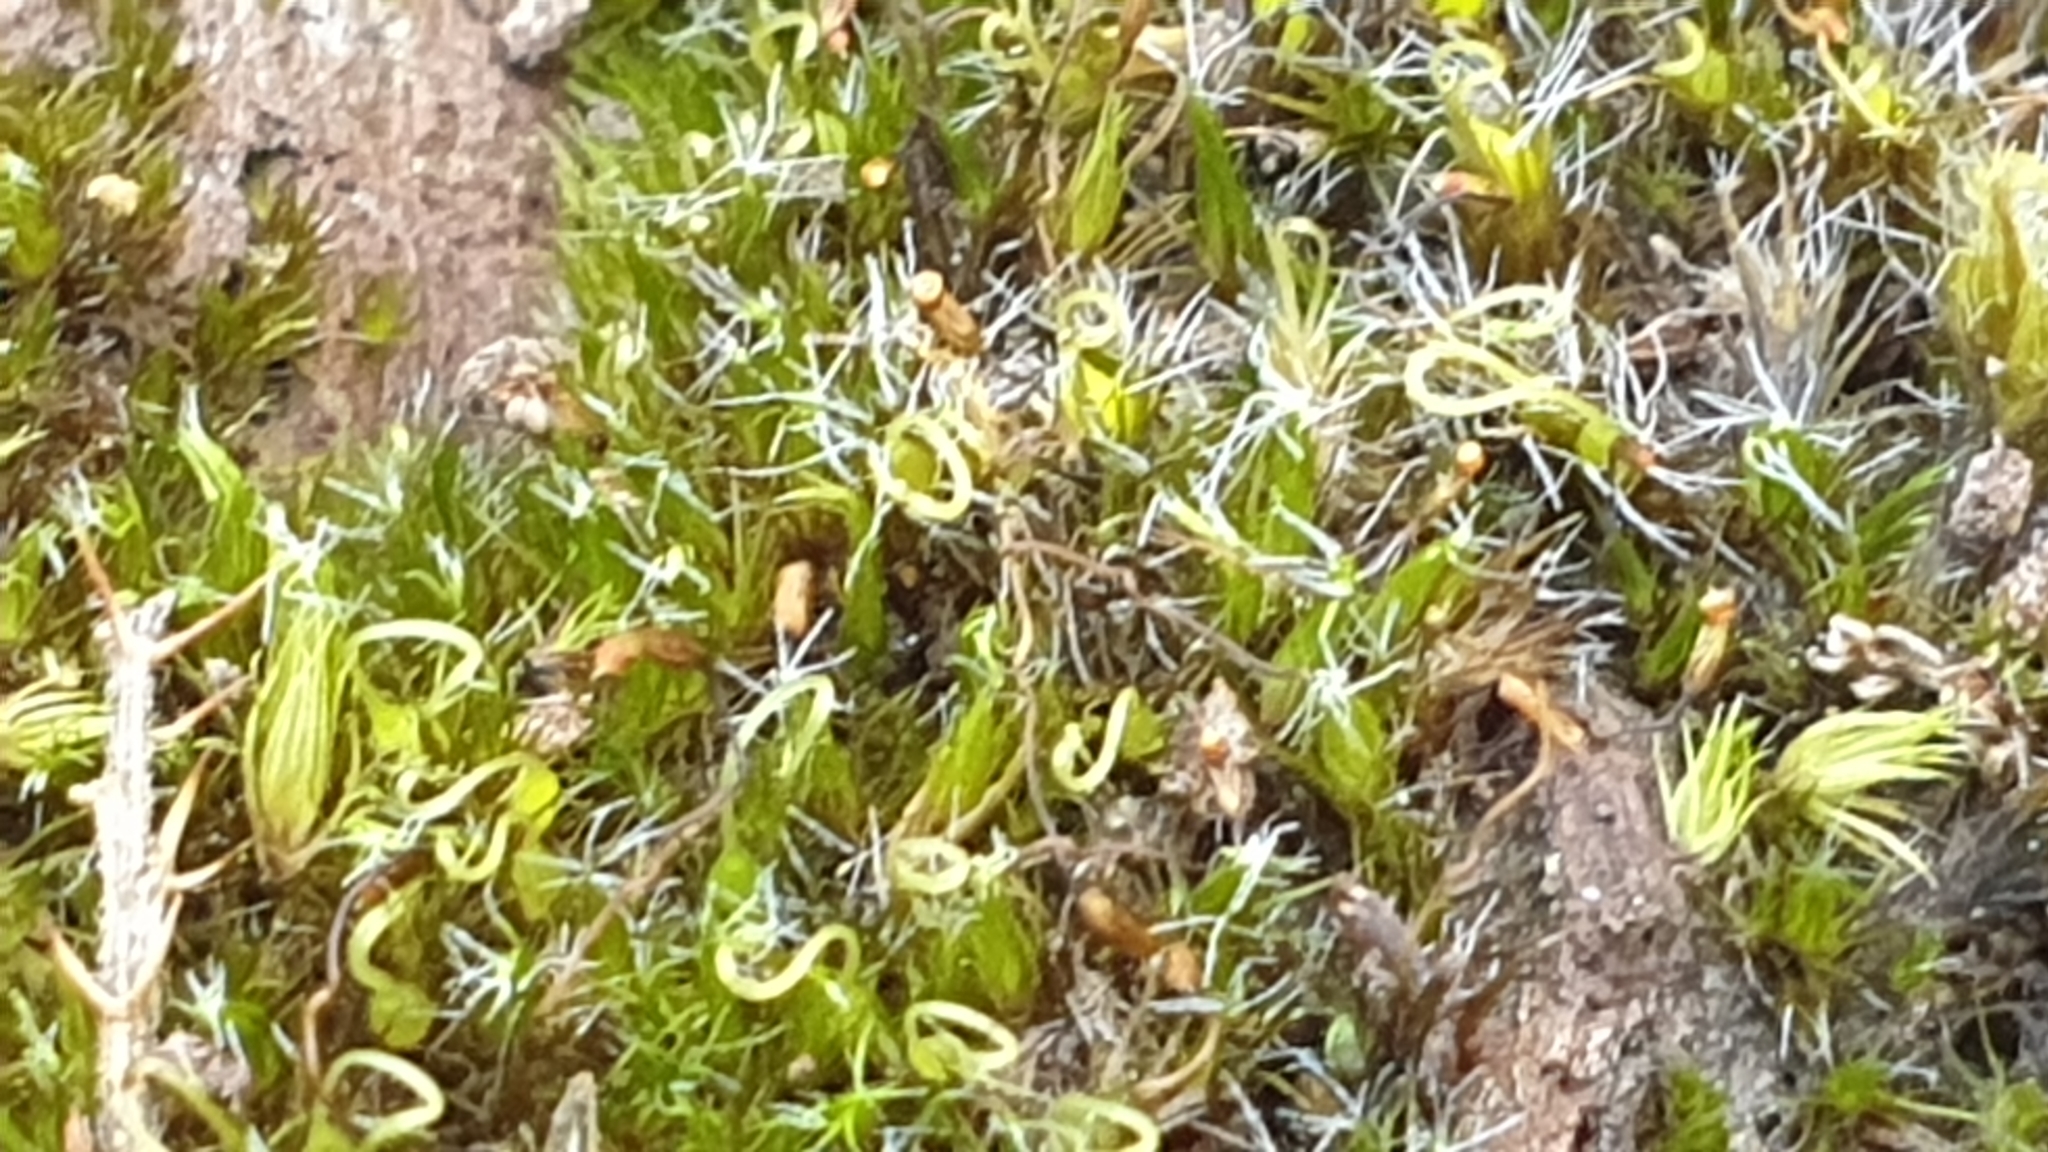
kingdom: Plantae
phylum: Bryophyta
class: Bryopsida
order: Dicranales
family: Leucobryaceae
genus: Campylopus
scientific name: Campylopus introflexus
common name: Heath star moss
